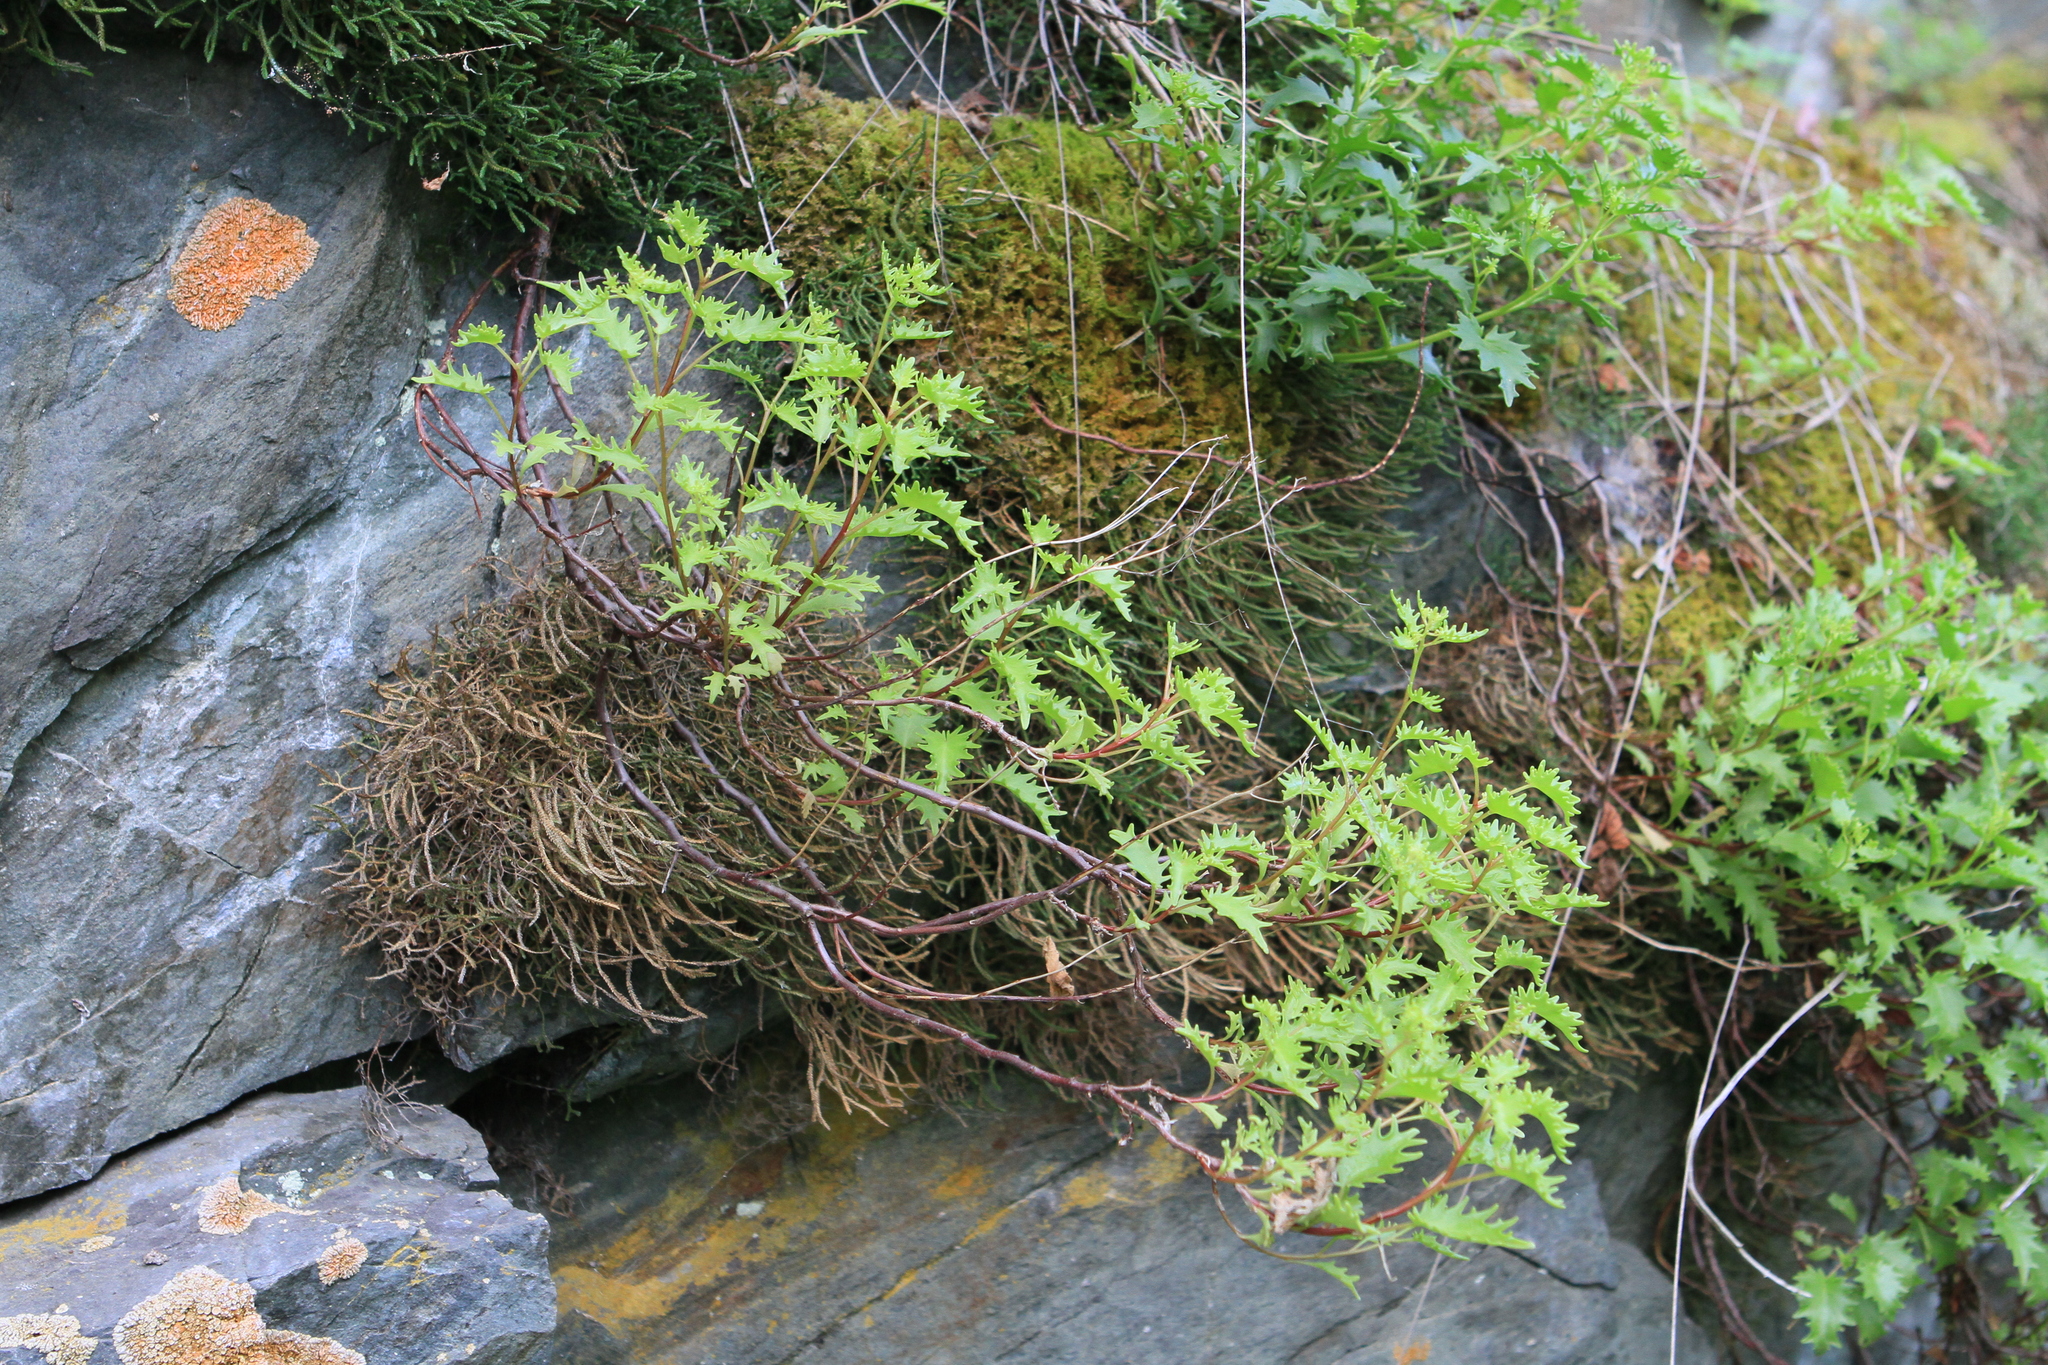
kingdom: Plantae
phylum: Tracheophyta
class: Magnoliopsida
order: Saxifragales
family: Crassulaceae
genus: Hylotelephium
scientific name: Hylotelephium populifolium
